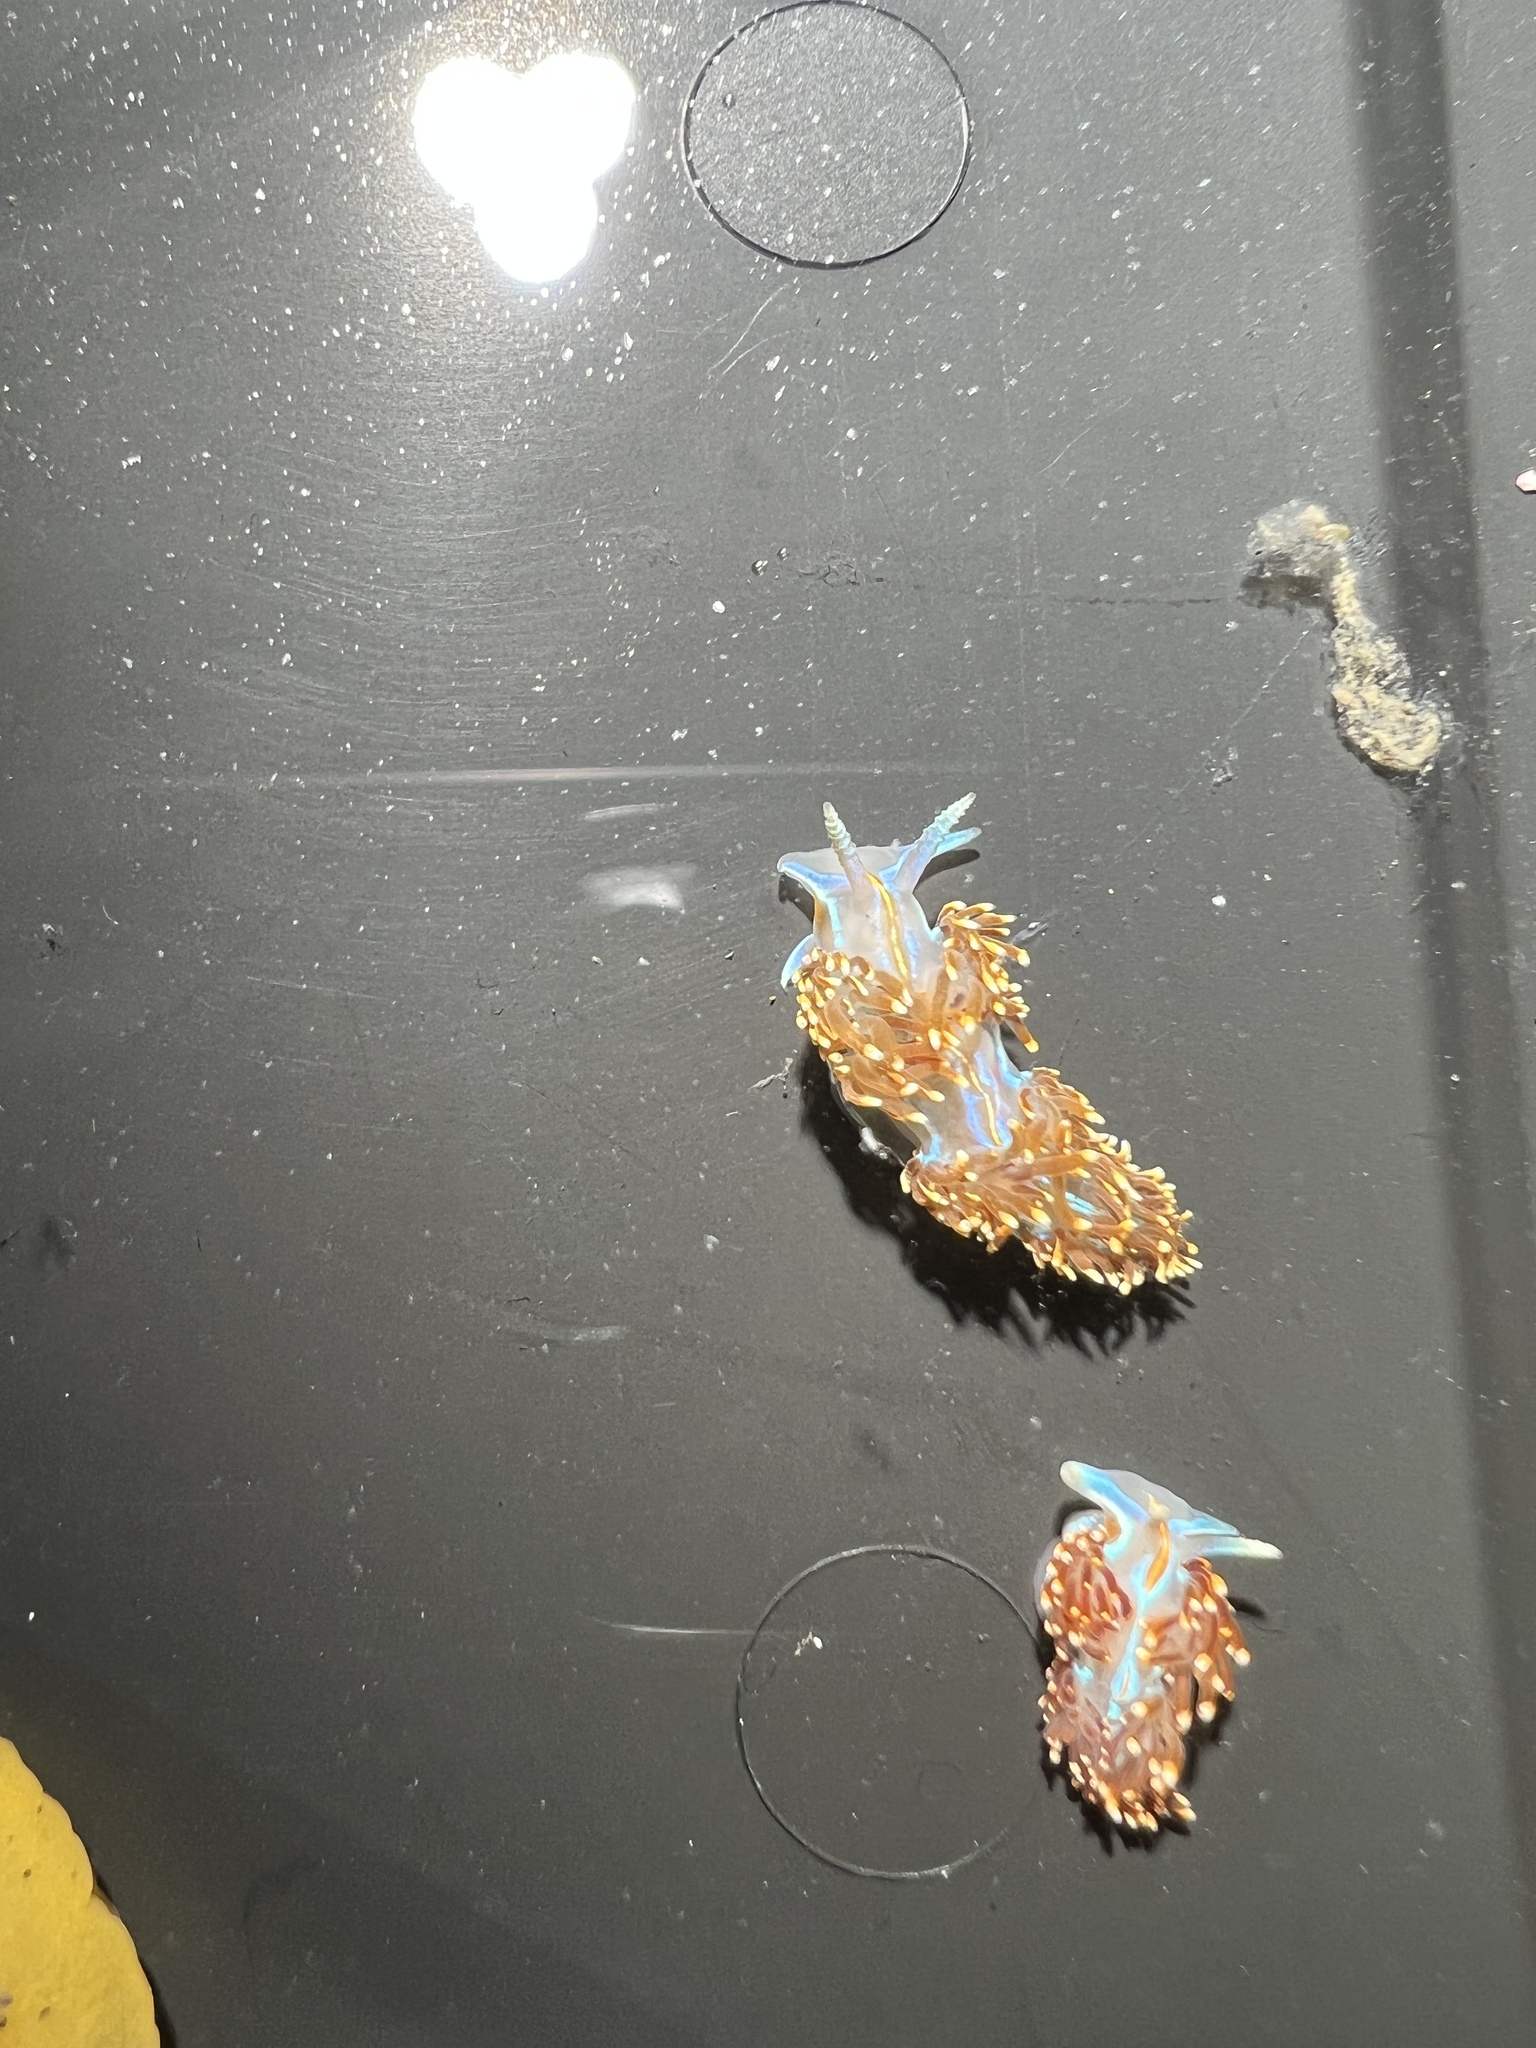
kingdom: Animalia
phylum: Mollusca
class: Gastropoda
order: Nudibranchia
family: Myrrhinidae
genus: Hermissenda
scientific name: Hermissenda opalescens
